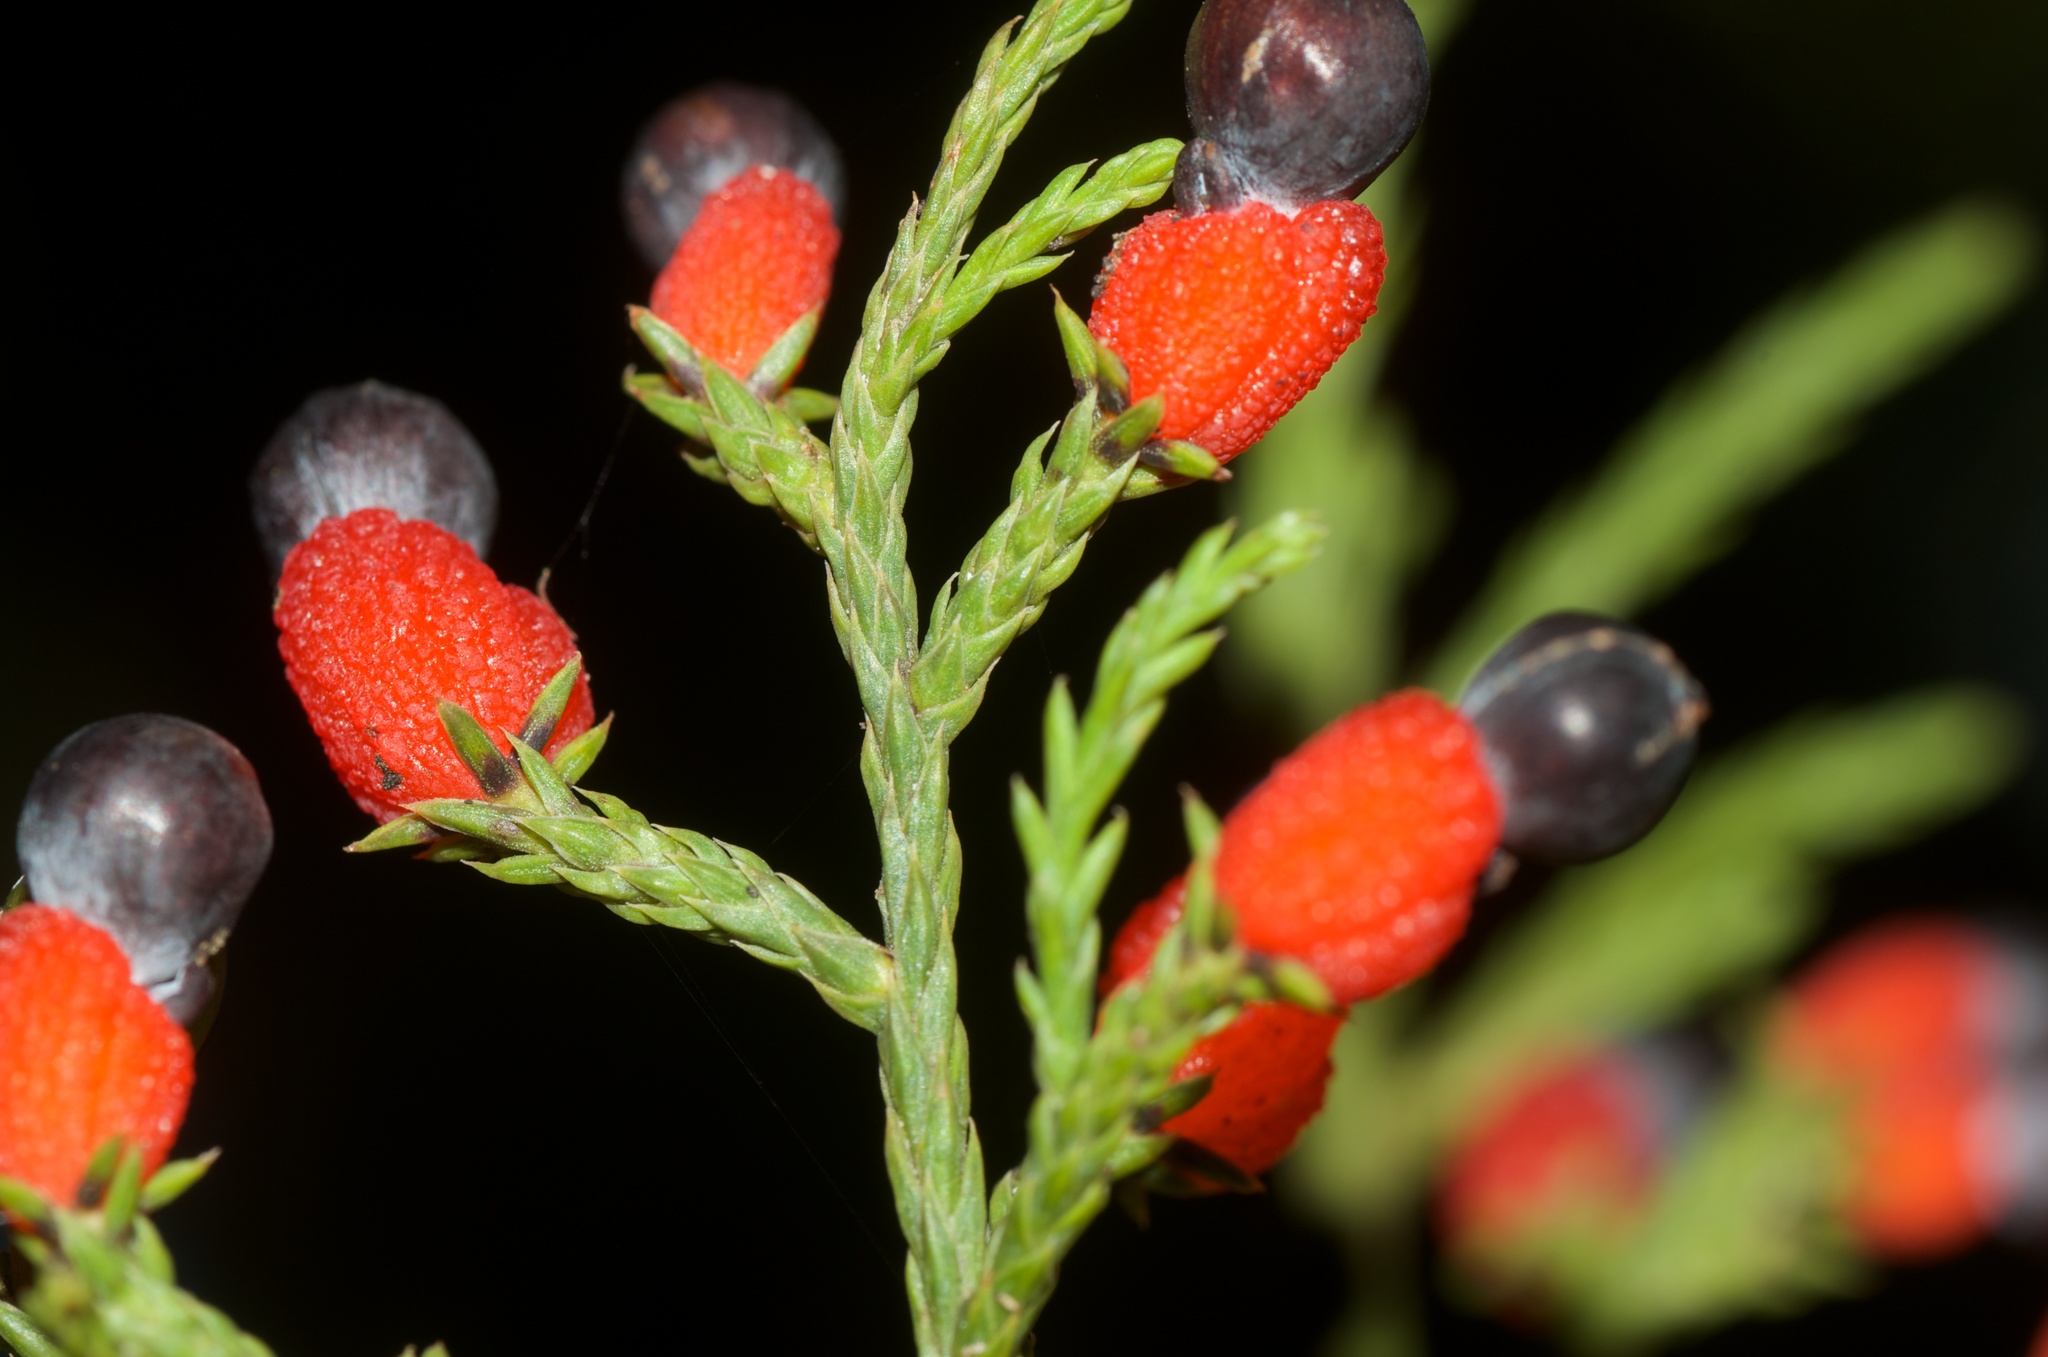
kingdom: Plantae
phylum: Tracheophyta
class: Pinopsida
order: Pinales
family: Podocarpaceae
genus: Dacrycarpus
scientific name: Dacrycarpus dacrydioides
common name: White pine
